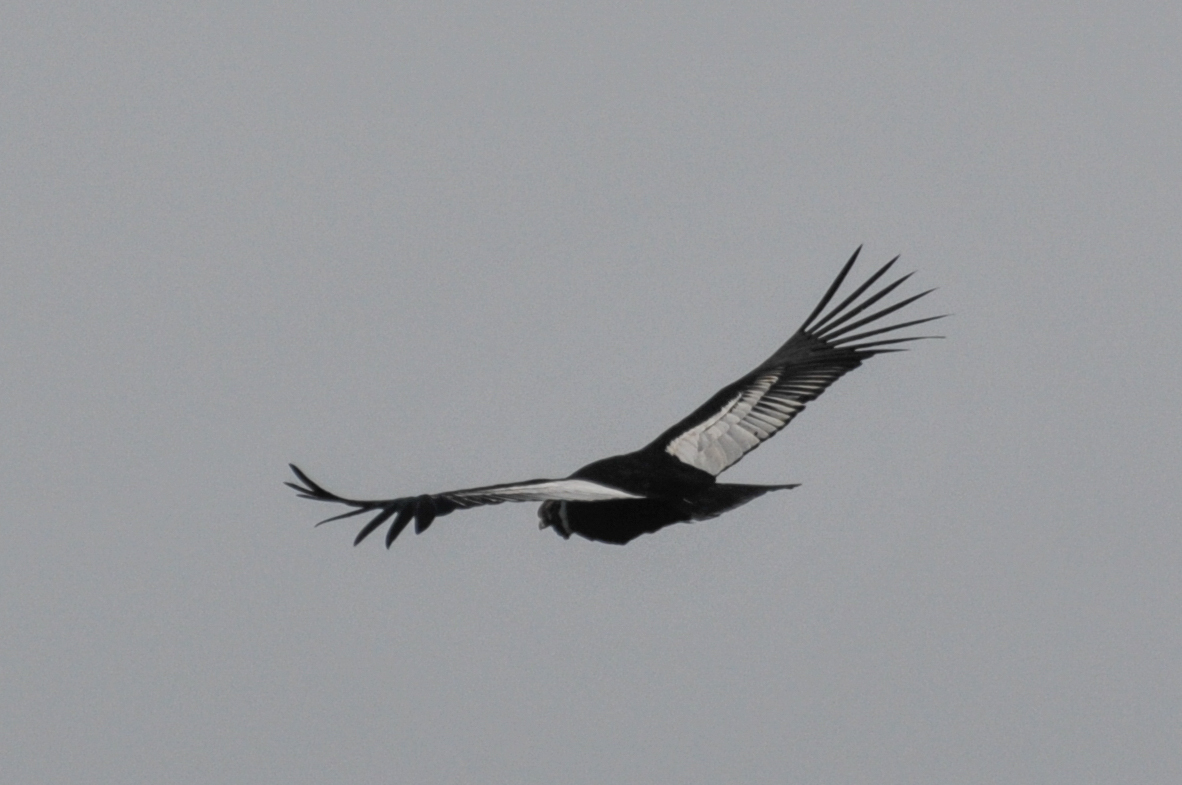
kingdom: Animalia
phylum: Chordata
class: Aves
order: Accipitriformes
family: Cathartidae
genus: Vultur
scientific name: Vultur gryphus
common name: Andean condor
